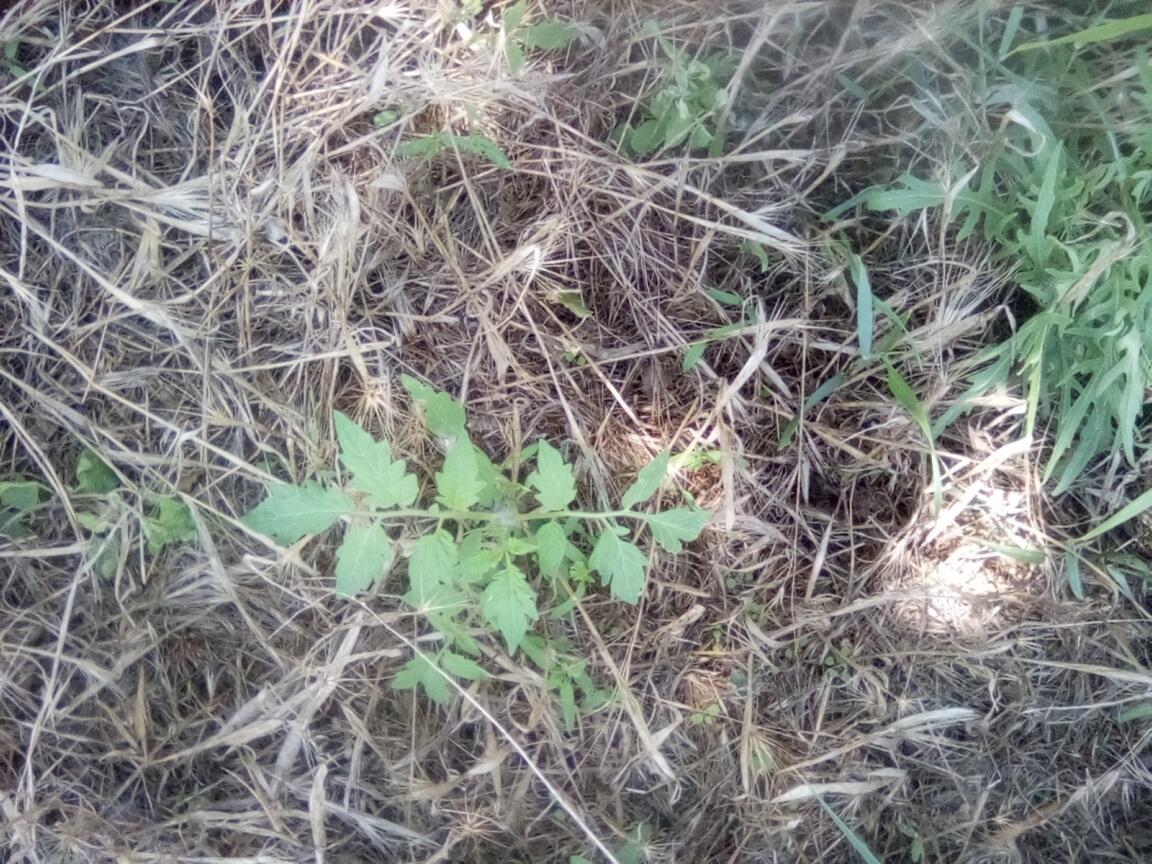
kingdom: Plantae
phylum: Tracheophyta
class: Magnoliopsida
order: Solanales
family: Solanaceae
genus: Solanum
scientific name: Solanum lycopersicum
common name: Garden tomato
